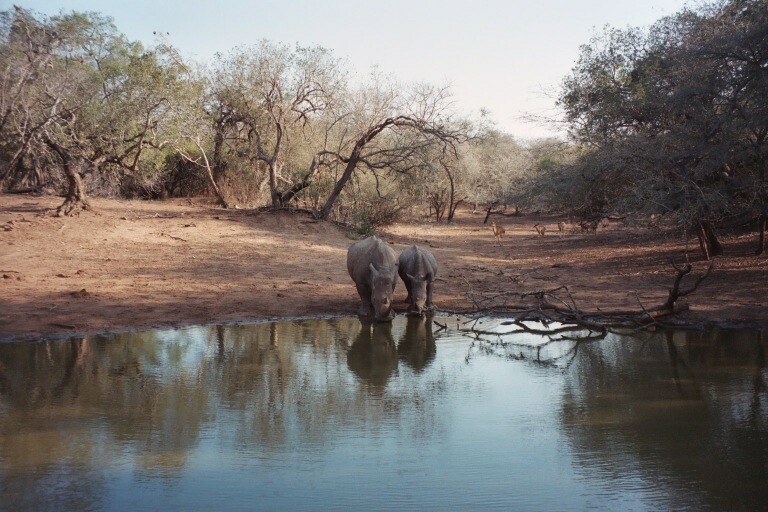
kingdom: Animalia
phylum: Chordata
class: Mammalia
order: Perissodactyla
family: Rhinocerotidae
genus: Ceratotherium
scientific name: Ceratotherium simum
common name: White rhinoceros
